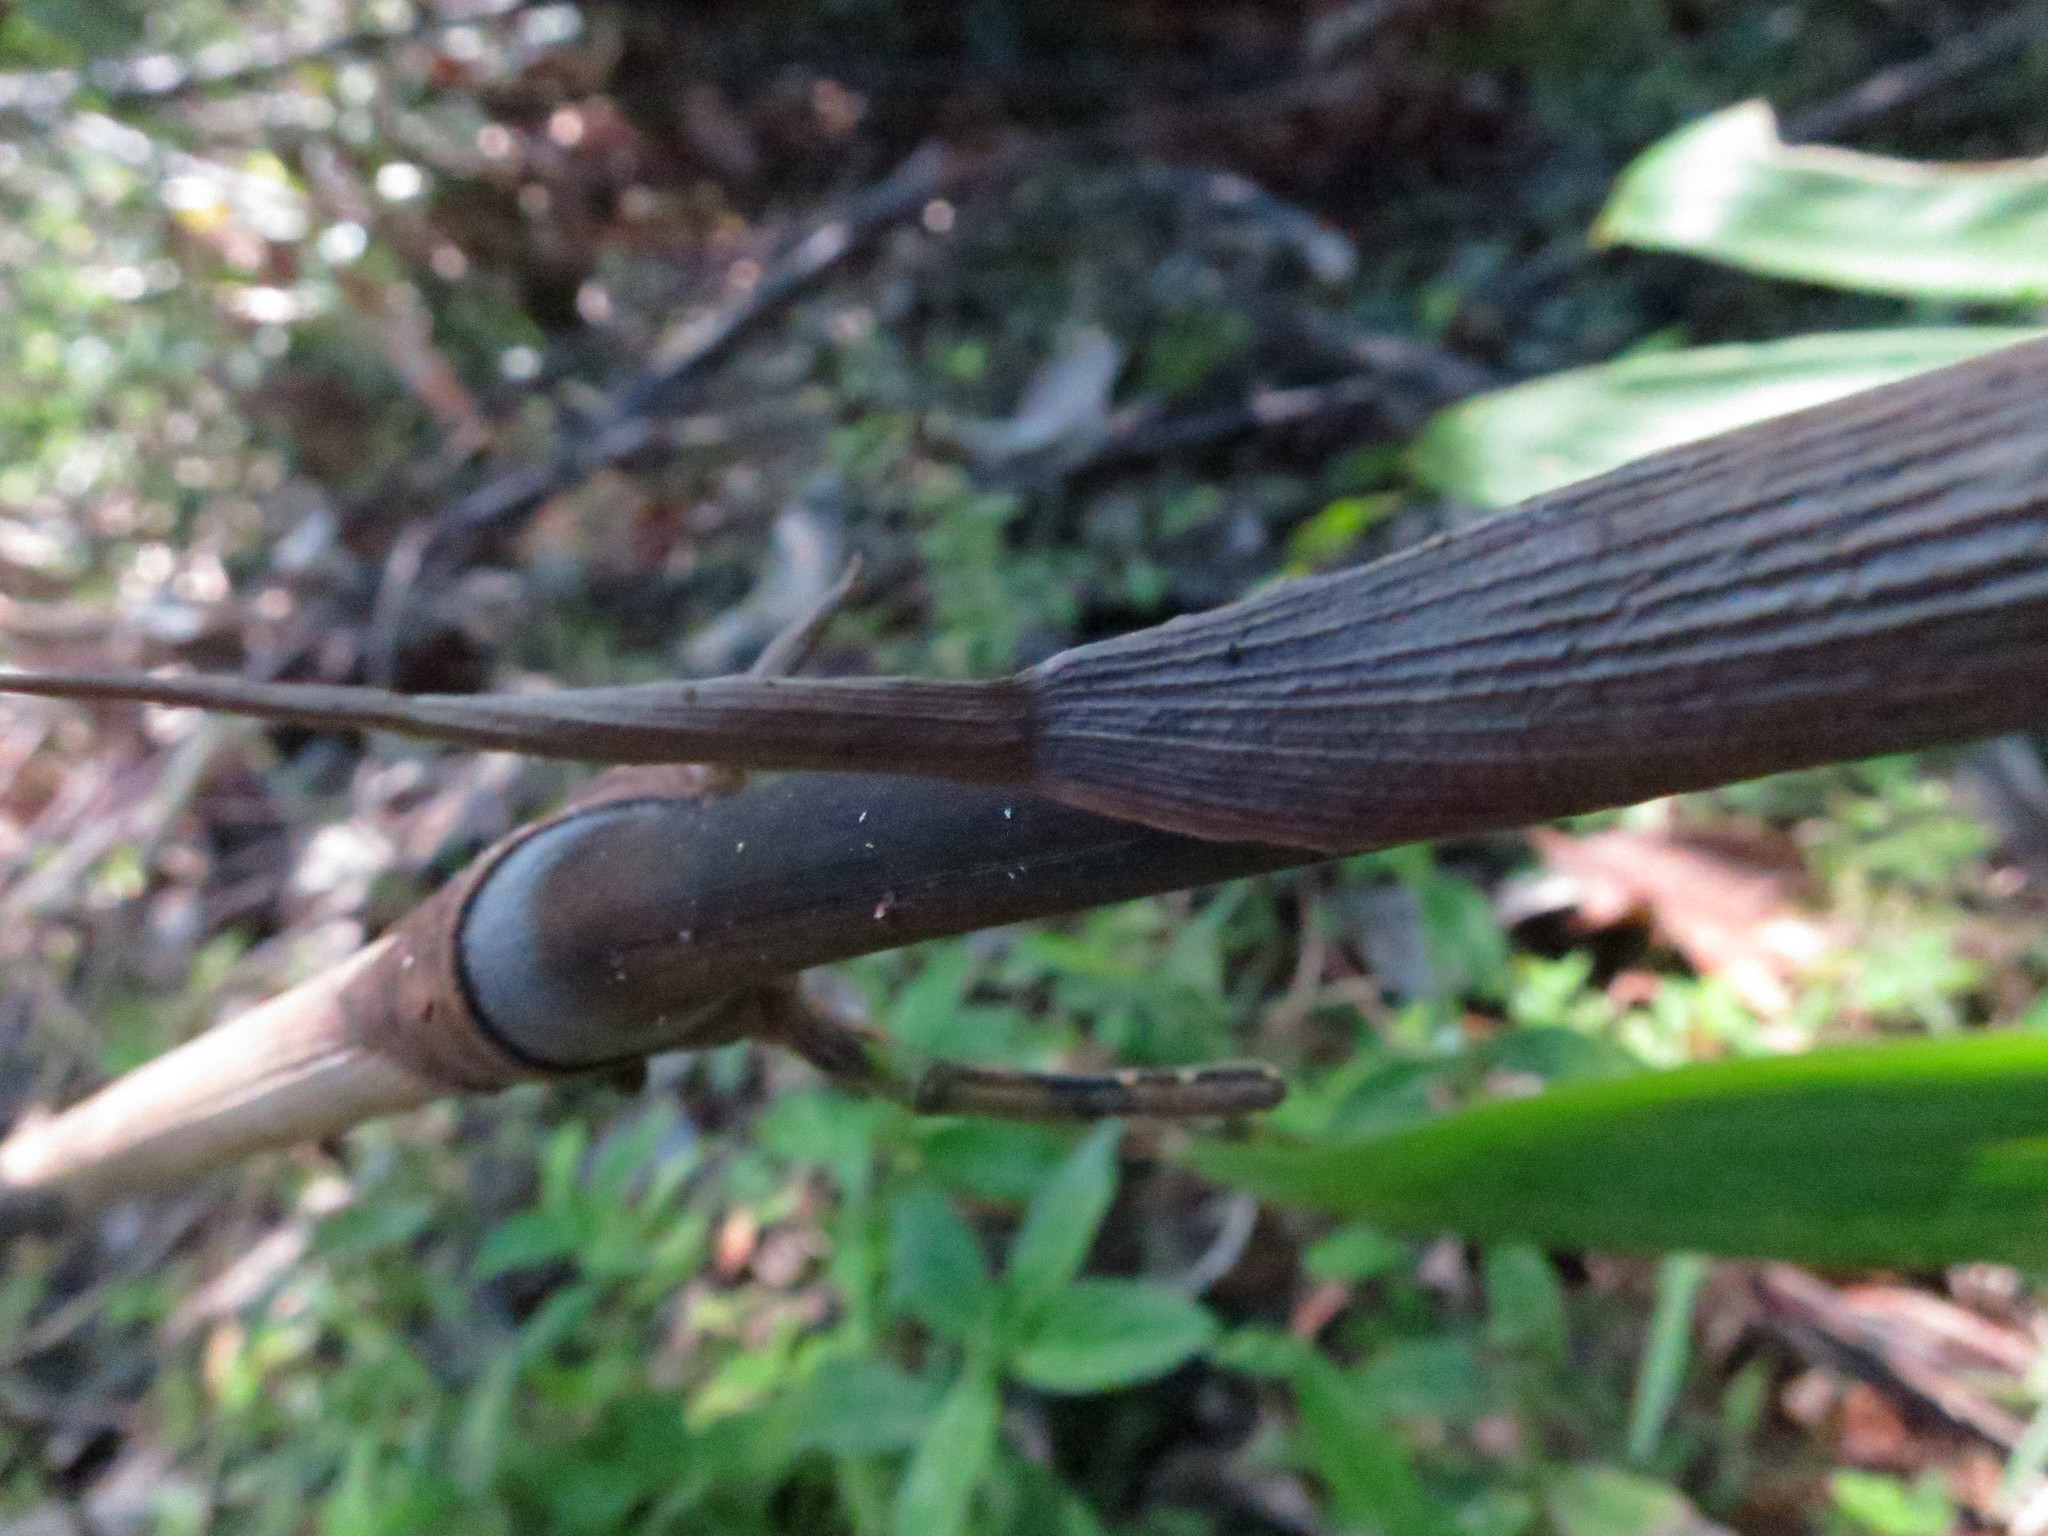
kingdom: Plantae
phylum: Tracheophyta
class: Liliopsida
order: Poales
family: Poaceae
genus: Oldeania
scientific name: Oldeania humbertii
